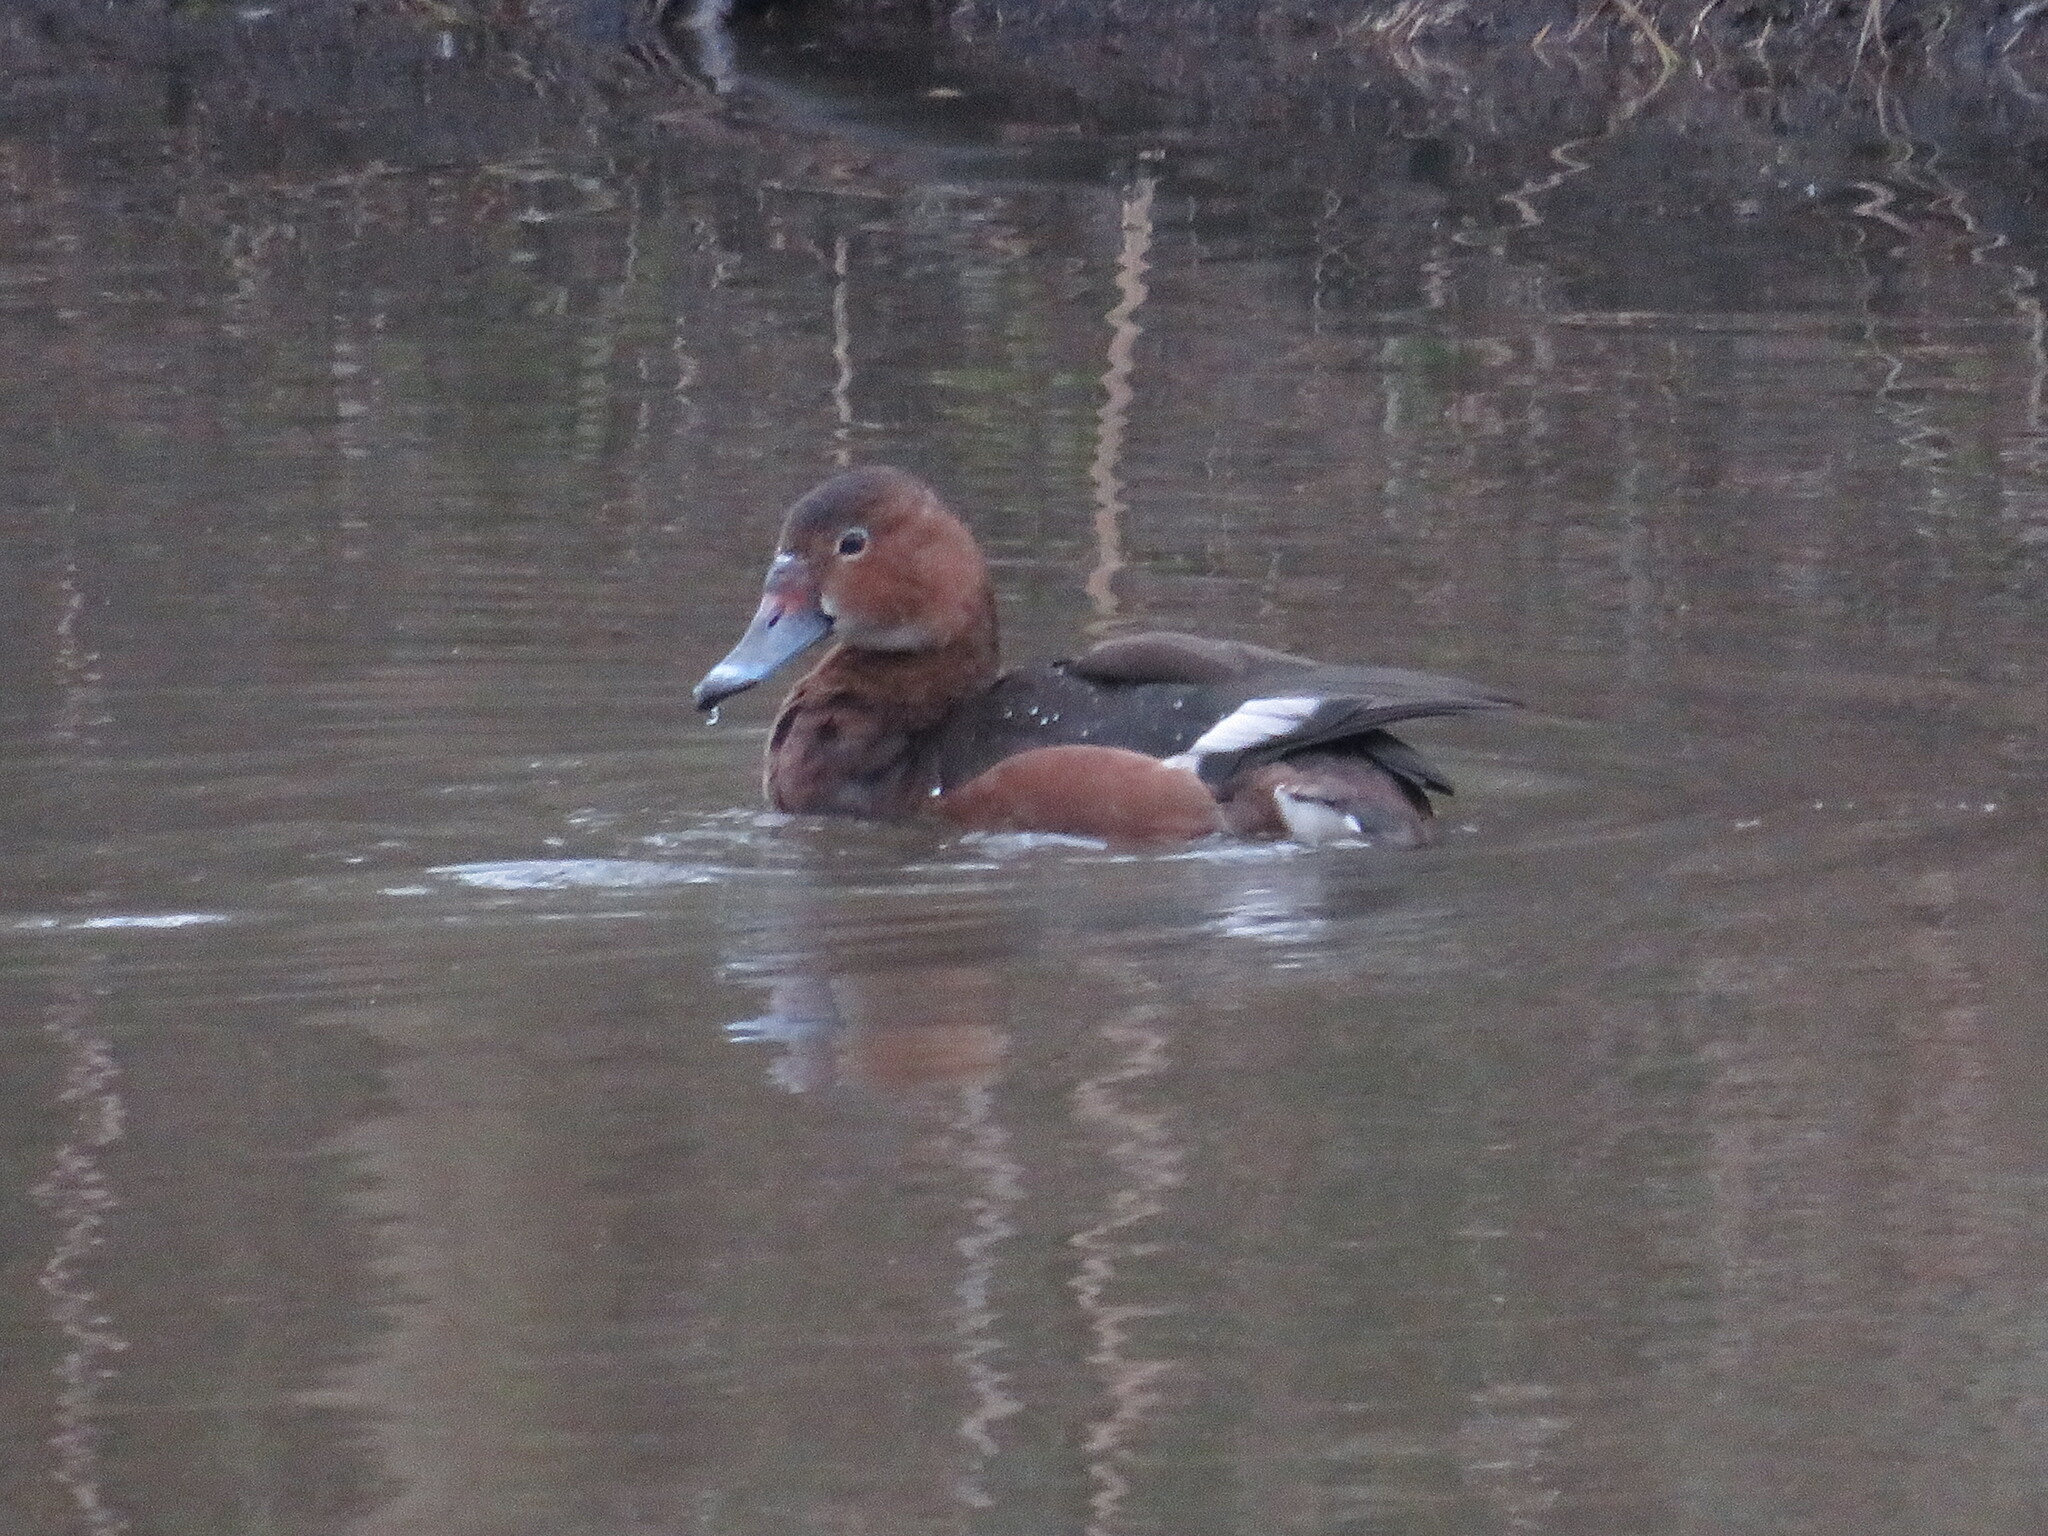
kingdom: Animalia
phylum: Chordata
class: Aves
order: Anseriformes
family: Anatidae
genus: Netta
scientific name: Netta peposaca
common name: Rosy-billed pochard
